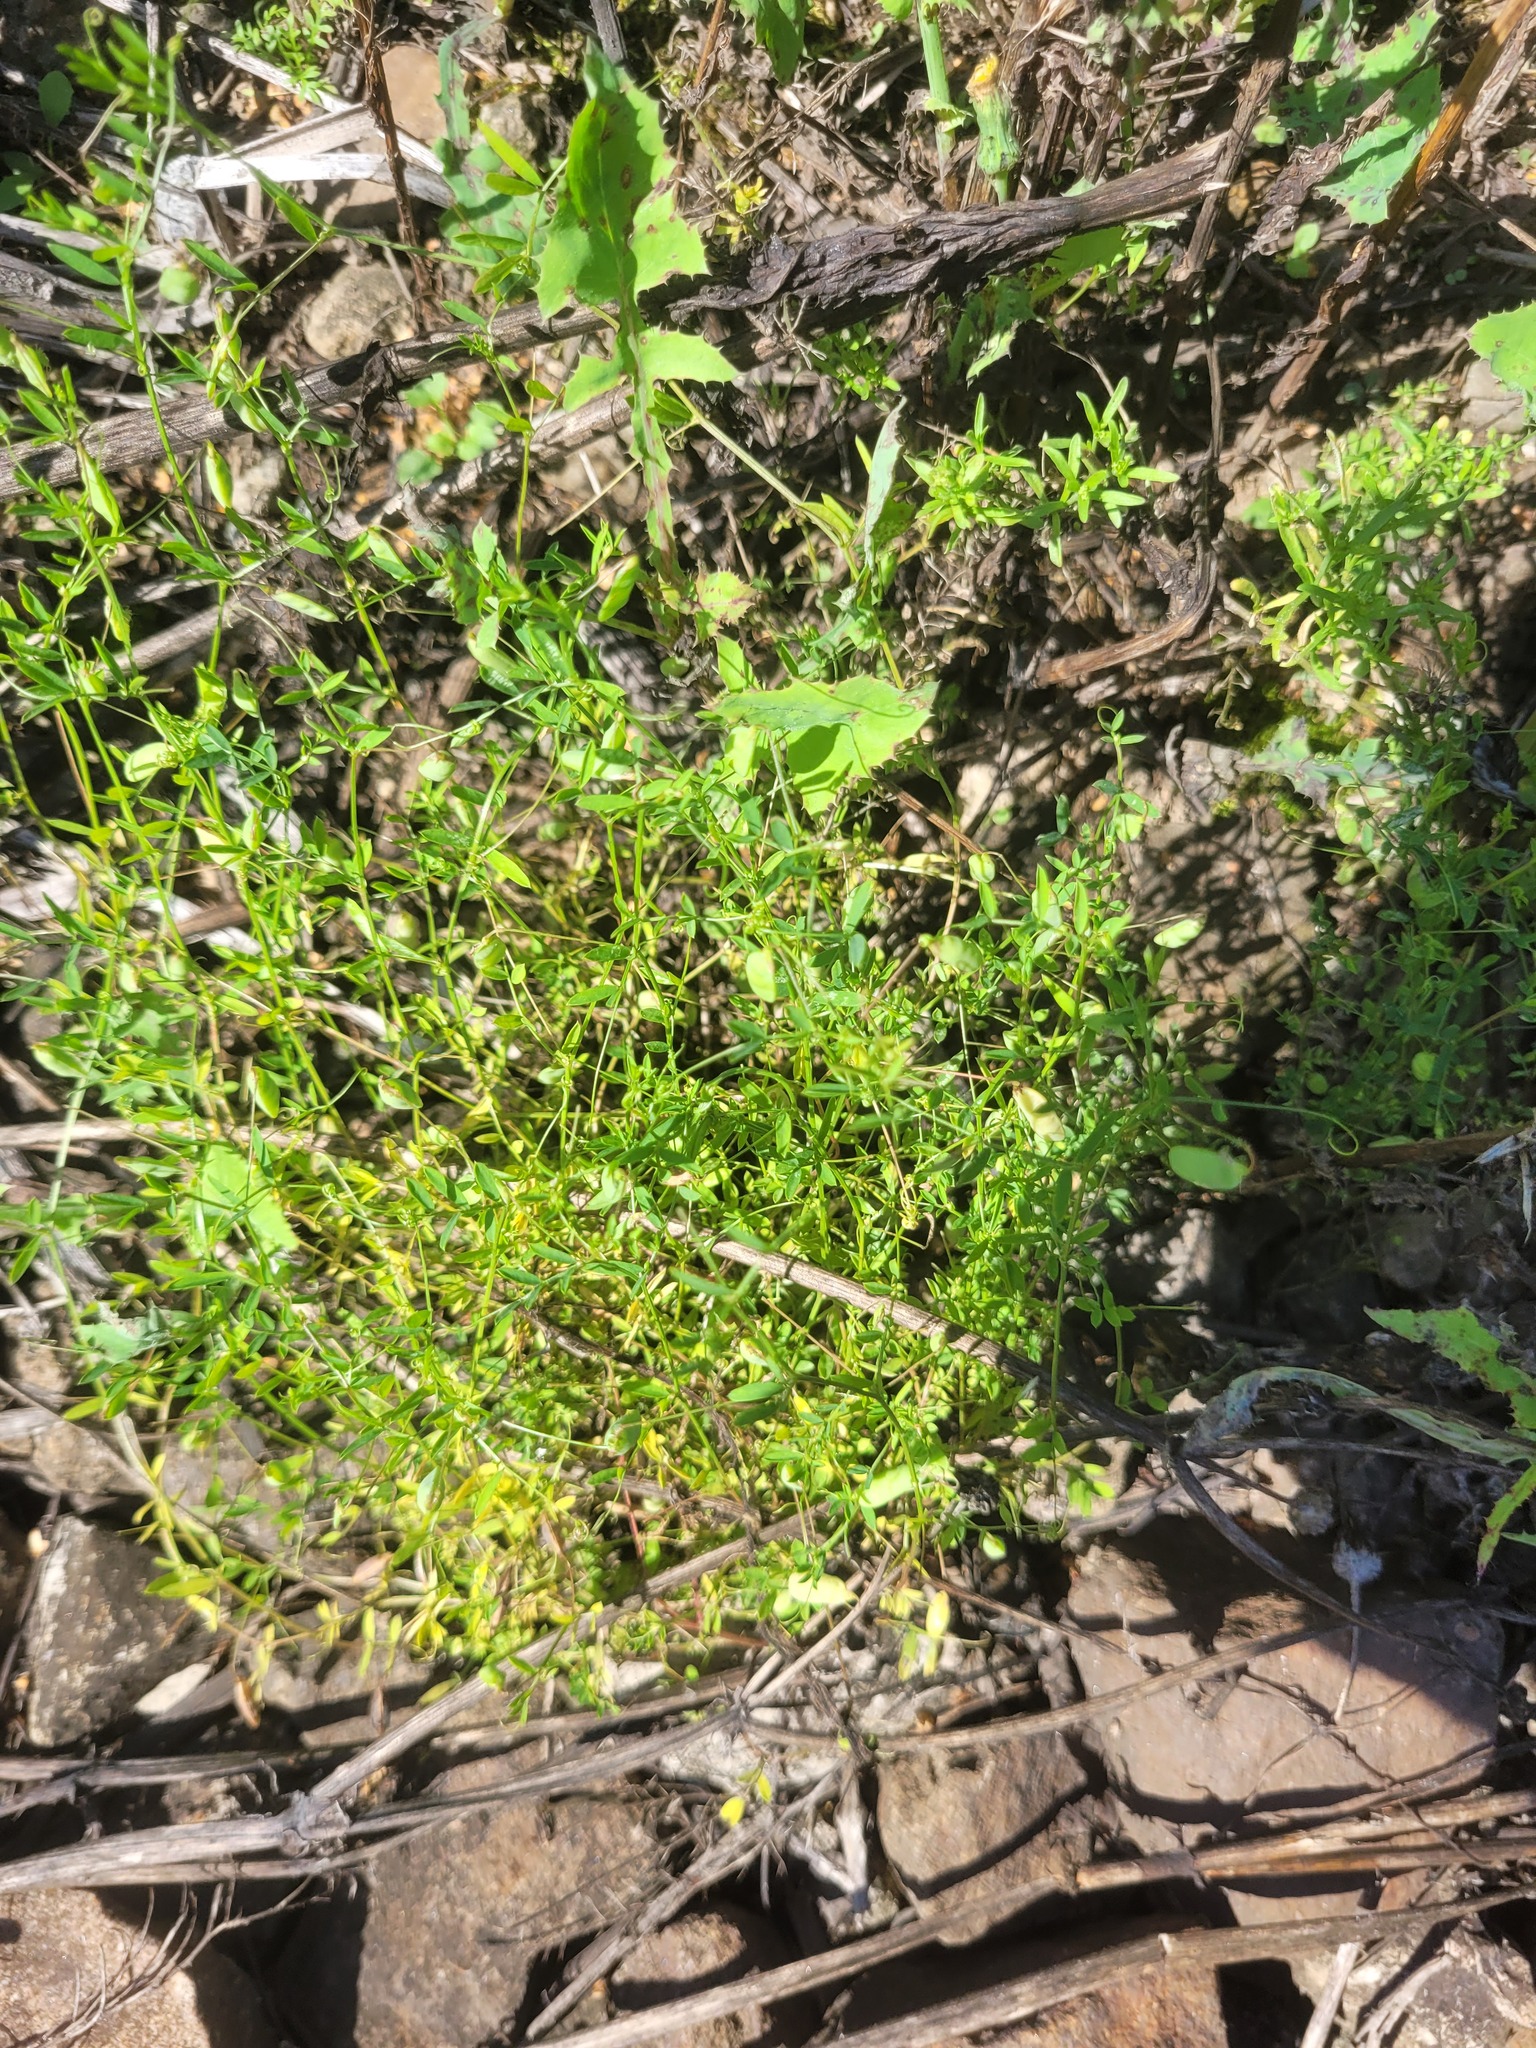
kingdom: Plantae
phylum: Tracheophyta
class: Magnoliopsida
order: Fabales
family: Fabaceae
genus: Vicia
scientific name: Vicia tetrasperma
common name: Smooth tare
